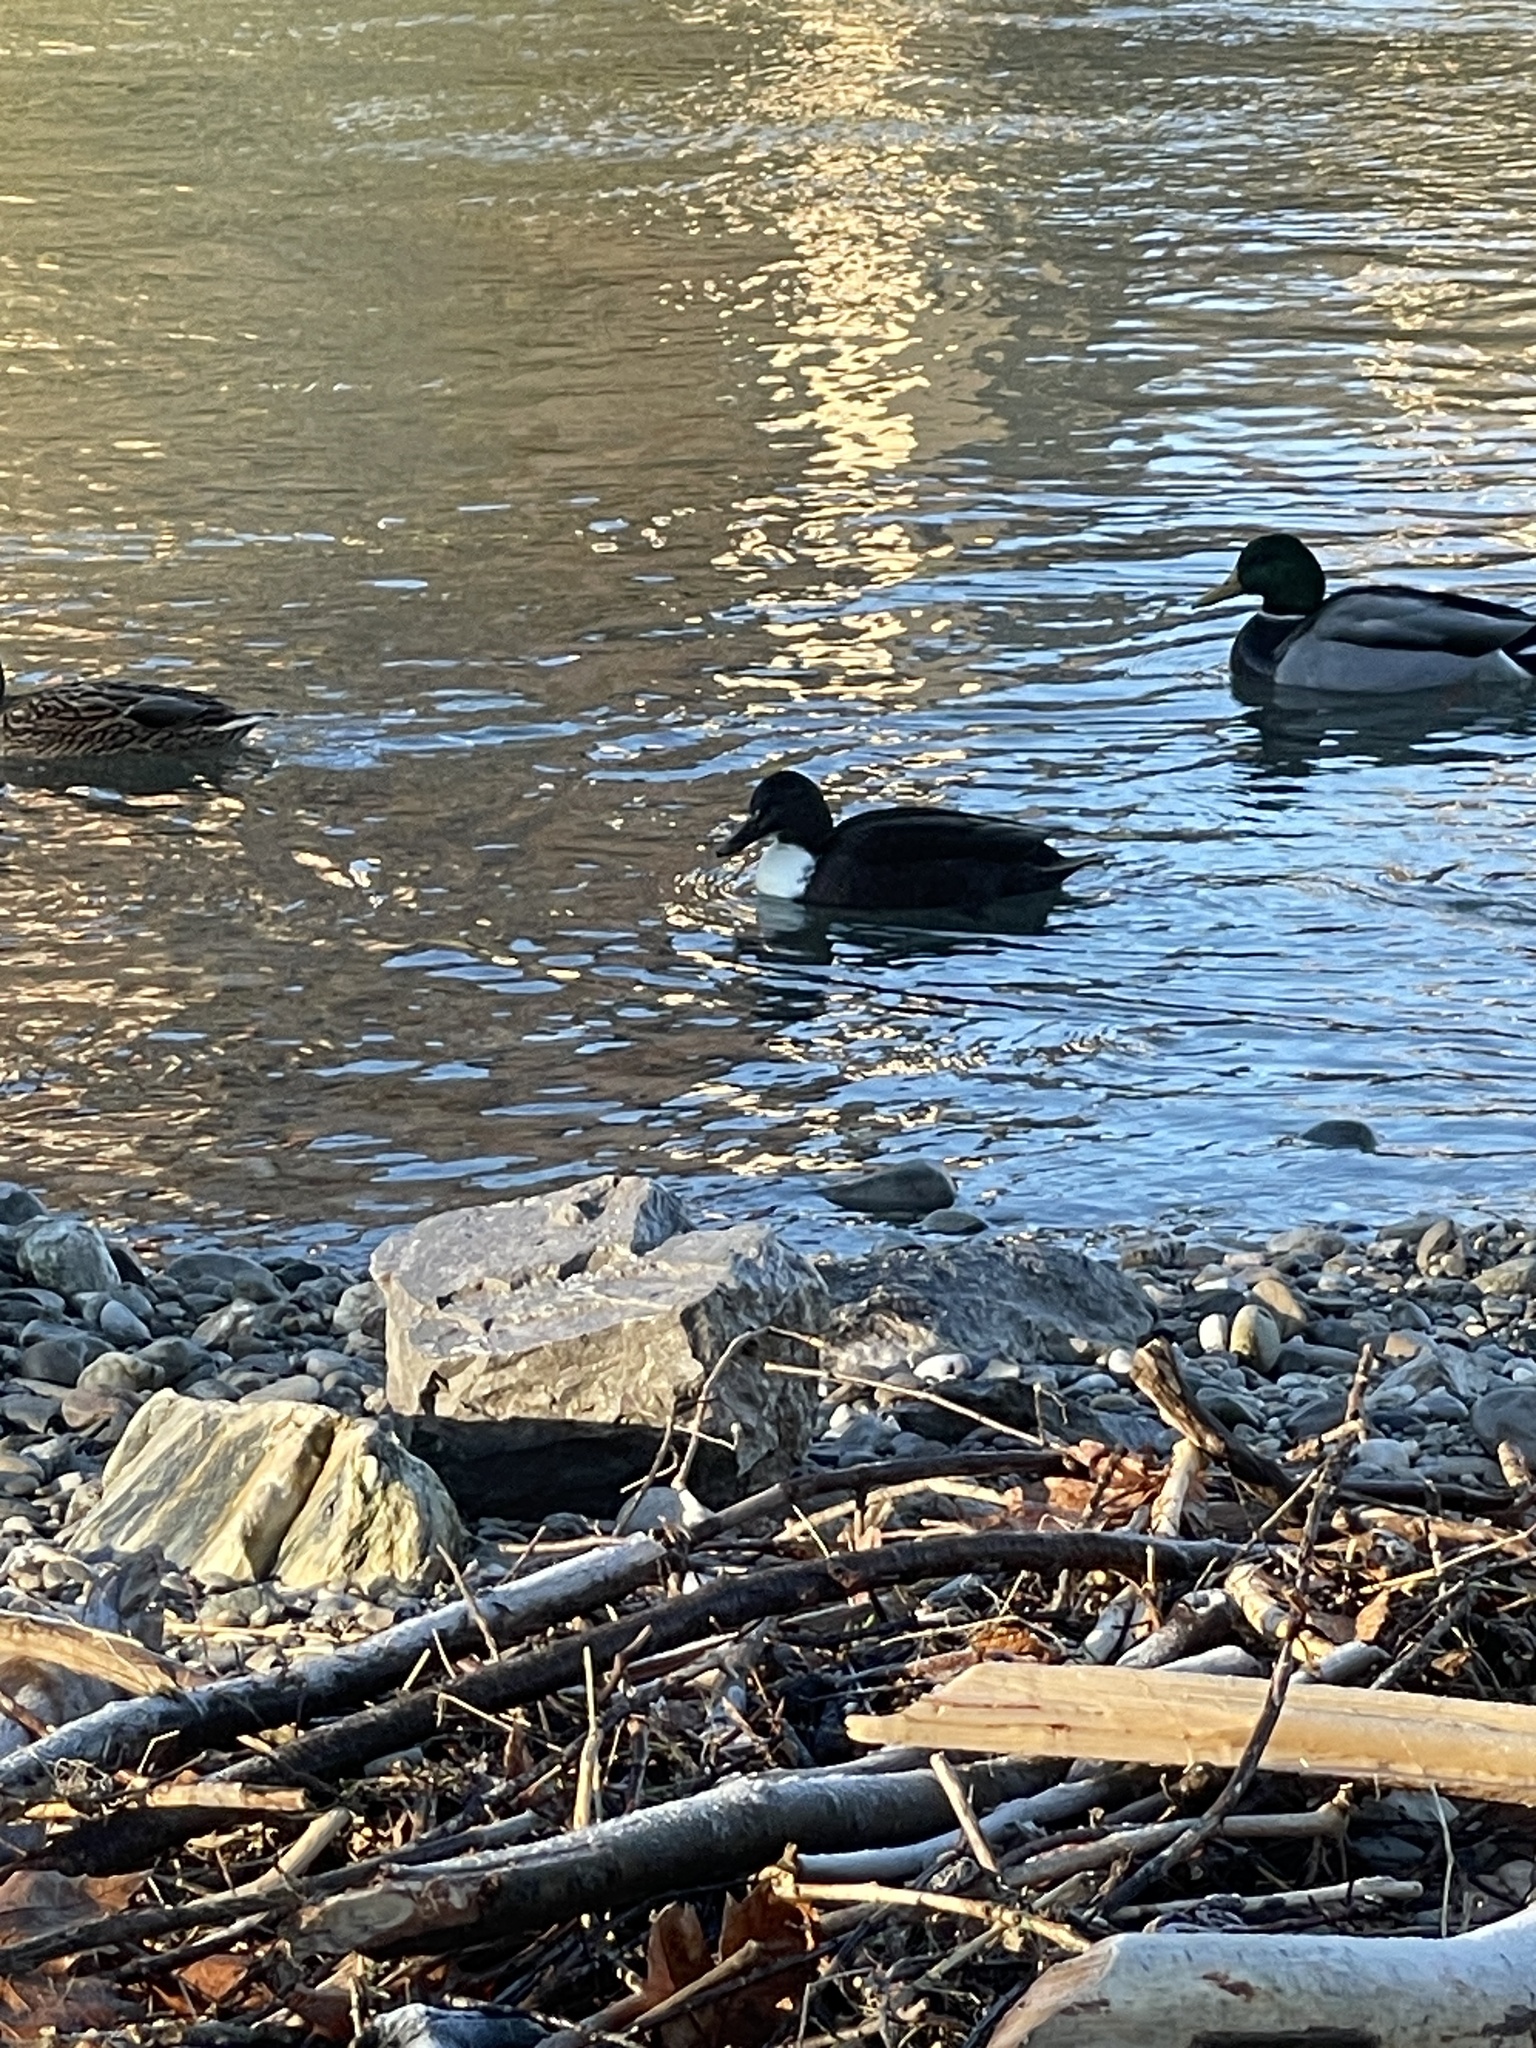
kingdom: Animalia
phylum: Chordata
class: Aves
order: Anseriformes
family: Anatidae
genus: Anas
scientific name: Anas platyrhynchos
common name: Mallard
